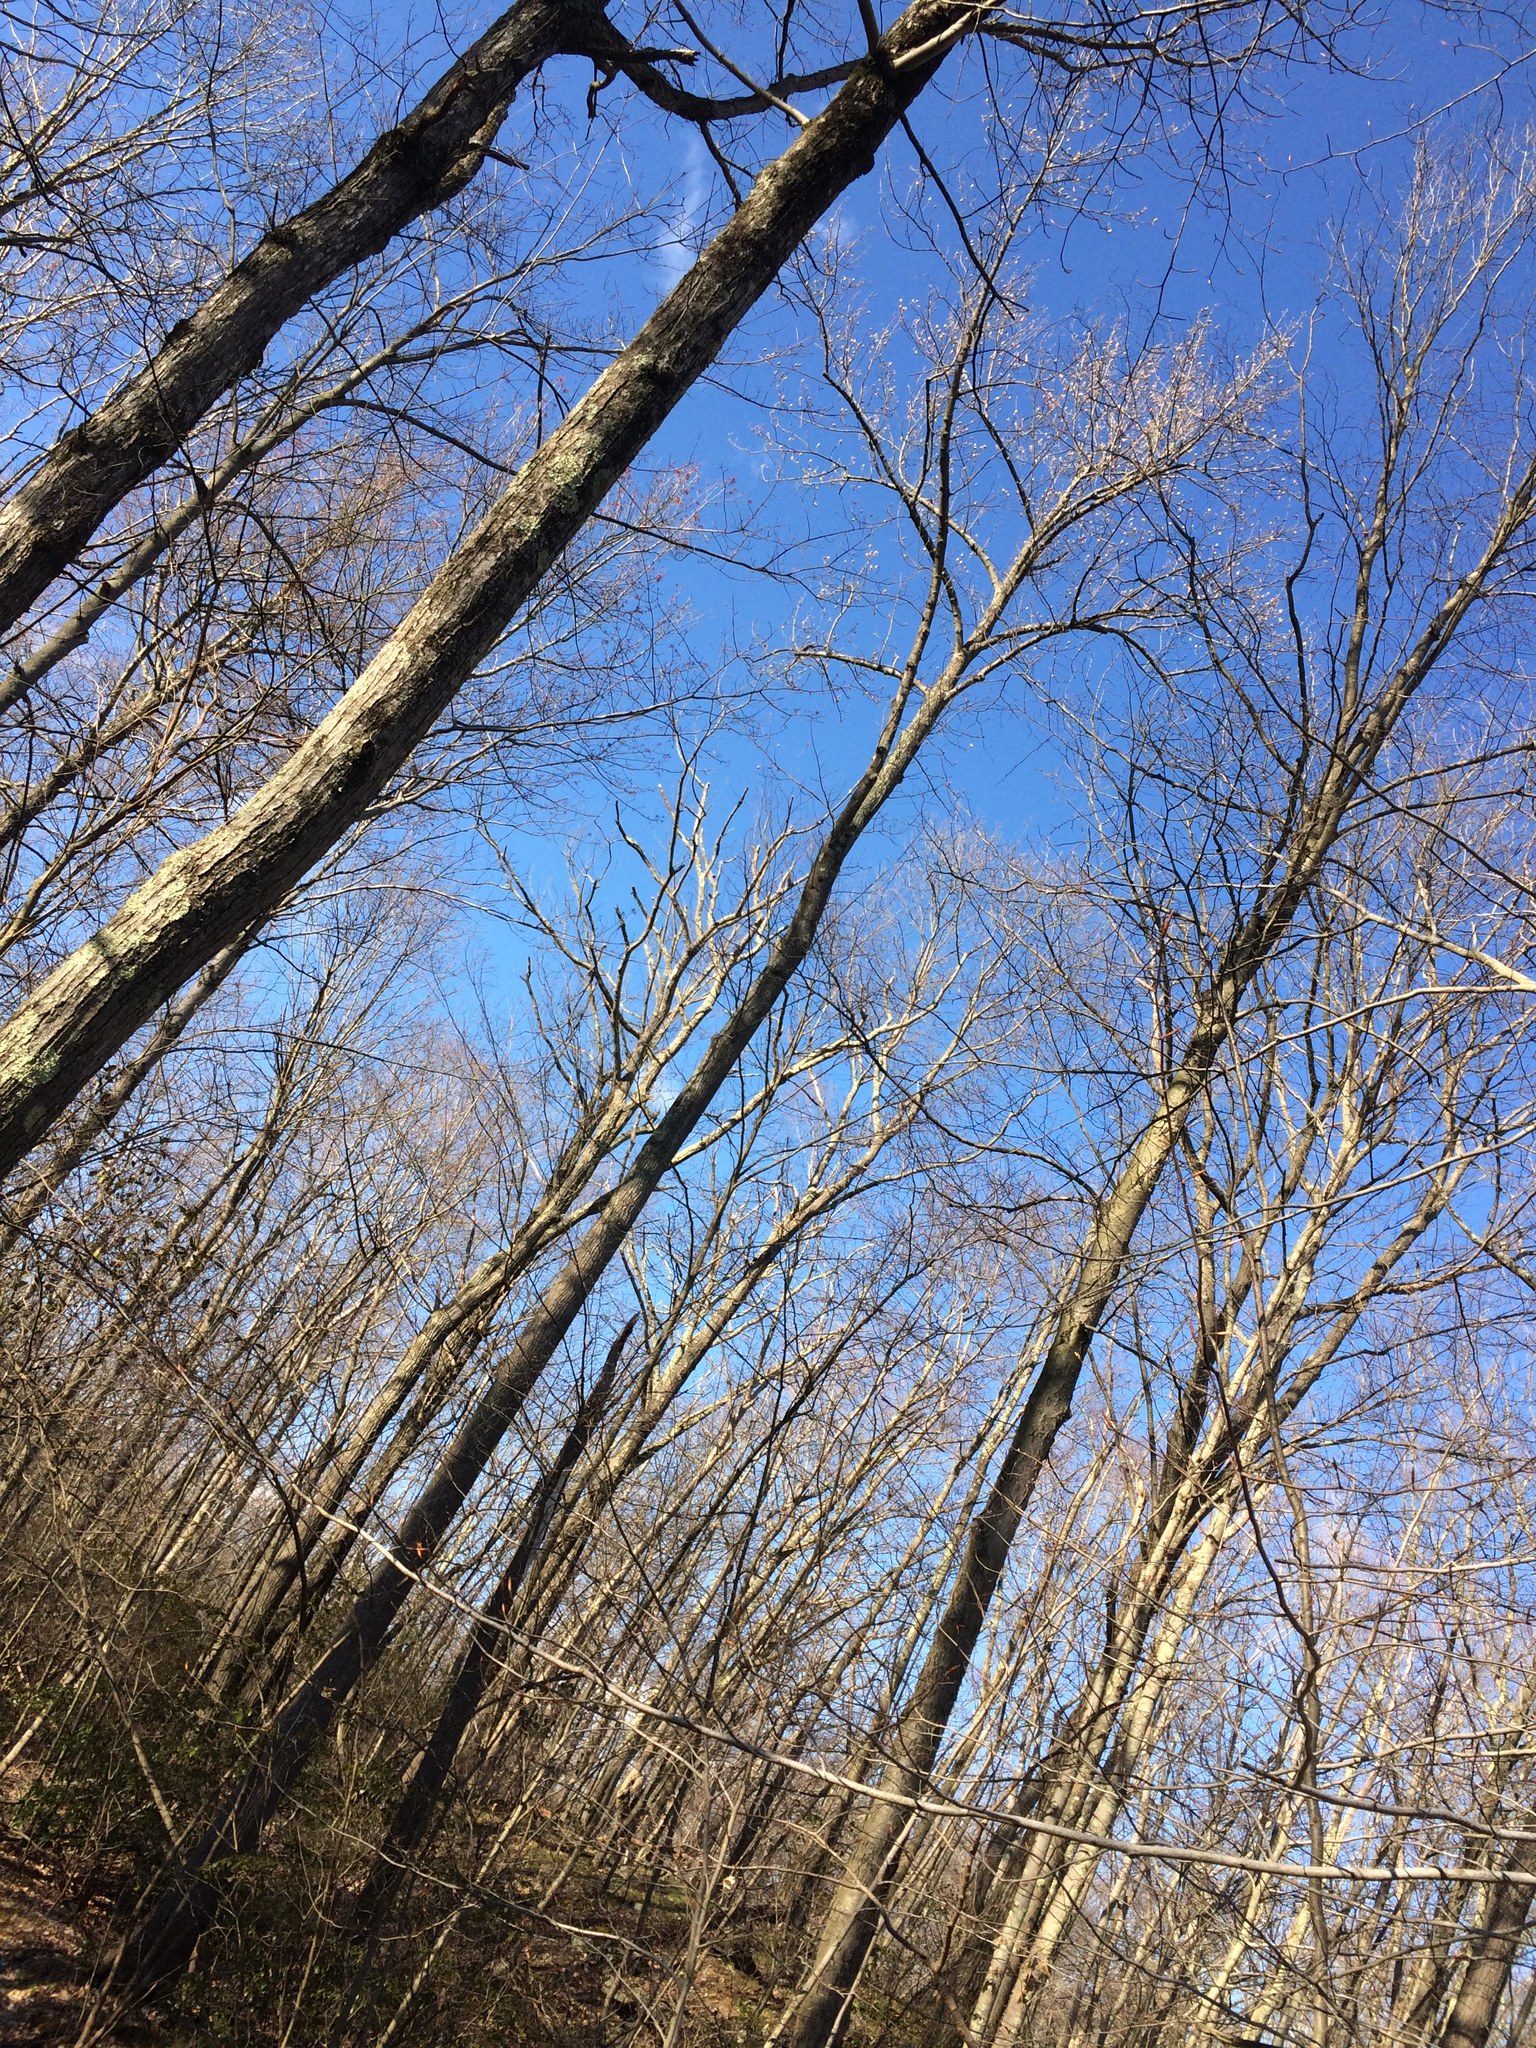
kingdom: Plantae
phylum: Tracheophyta
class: Magnoliopsida
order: Magnoliales
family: Magnoliaceae
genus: Liriodendron
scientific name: Liriodendron tulipifera
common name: Tulip tree
